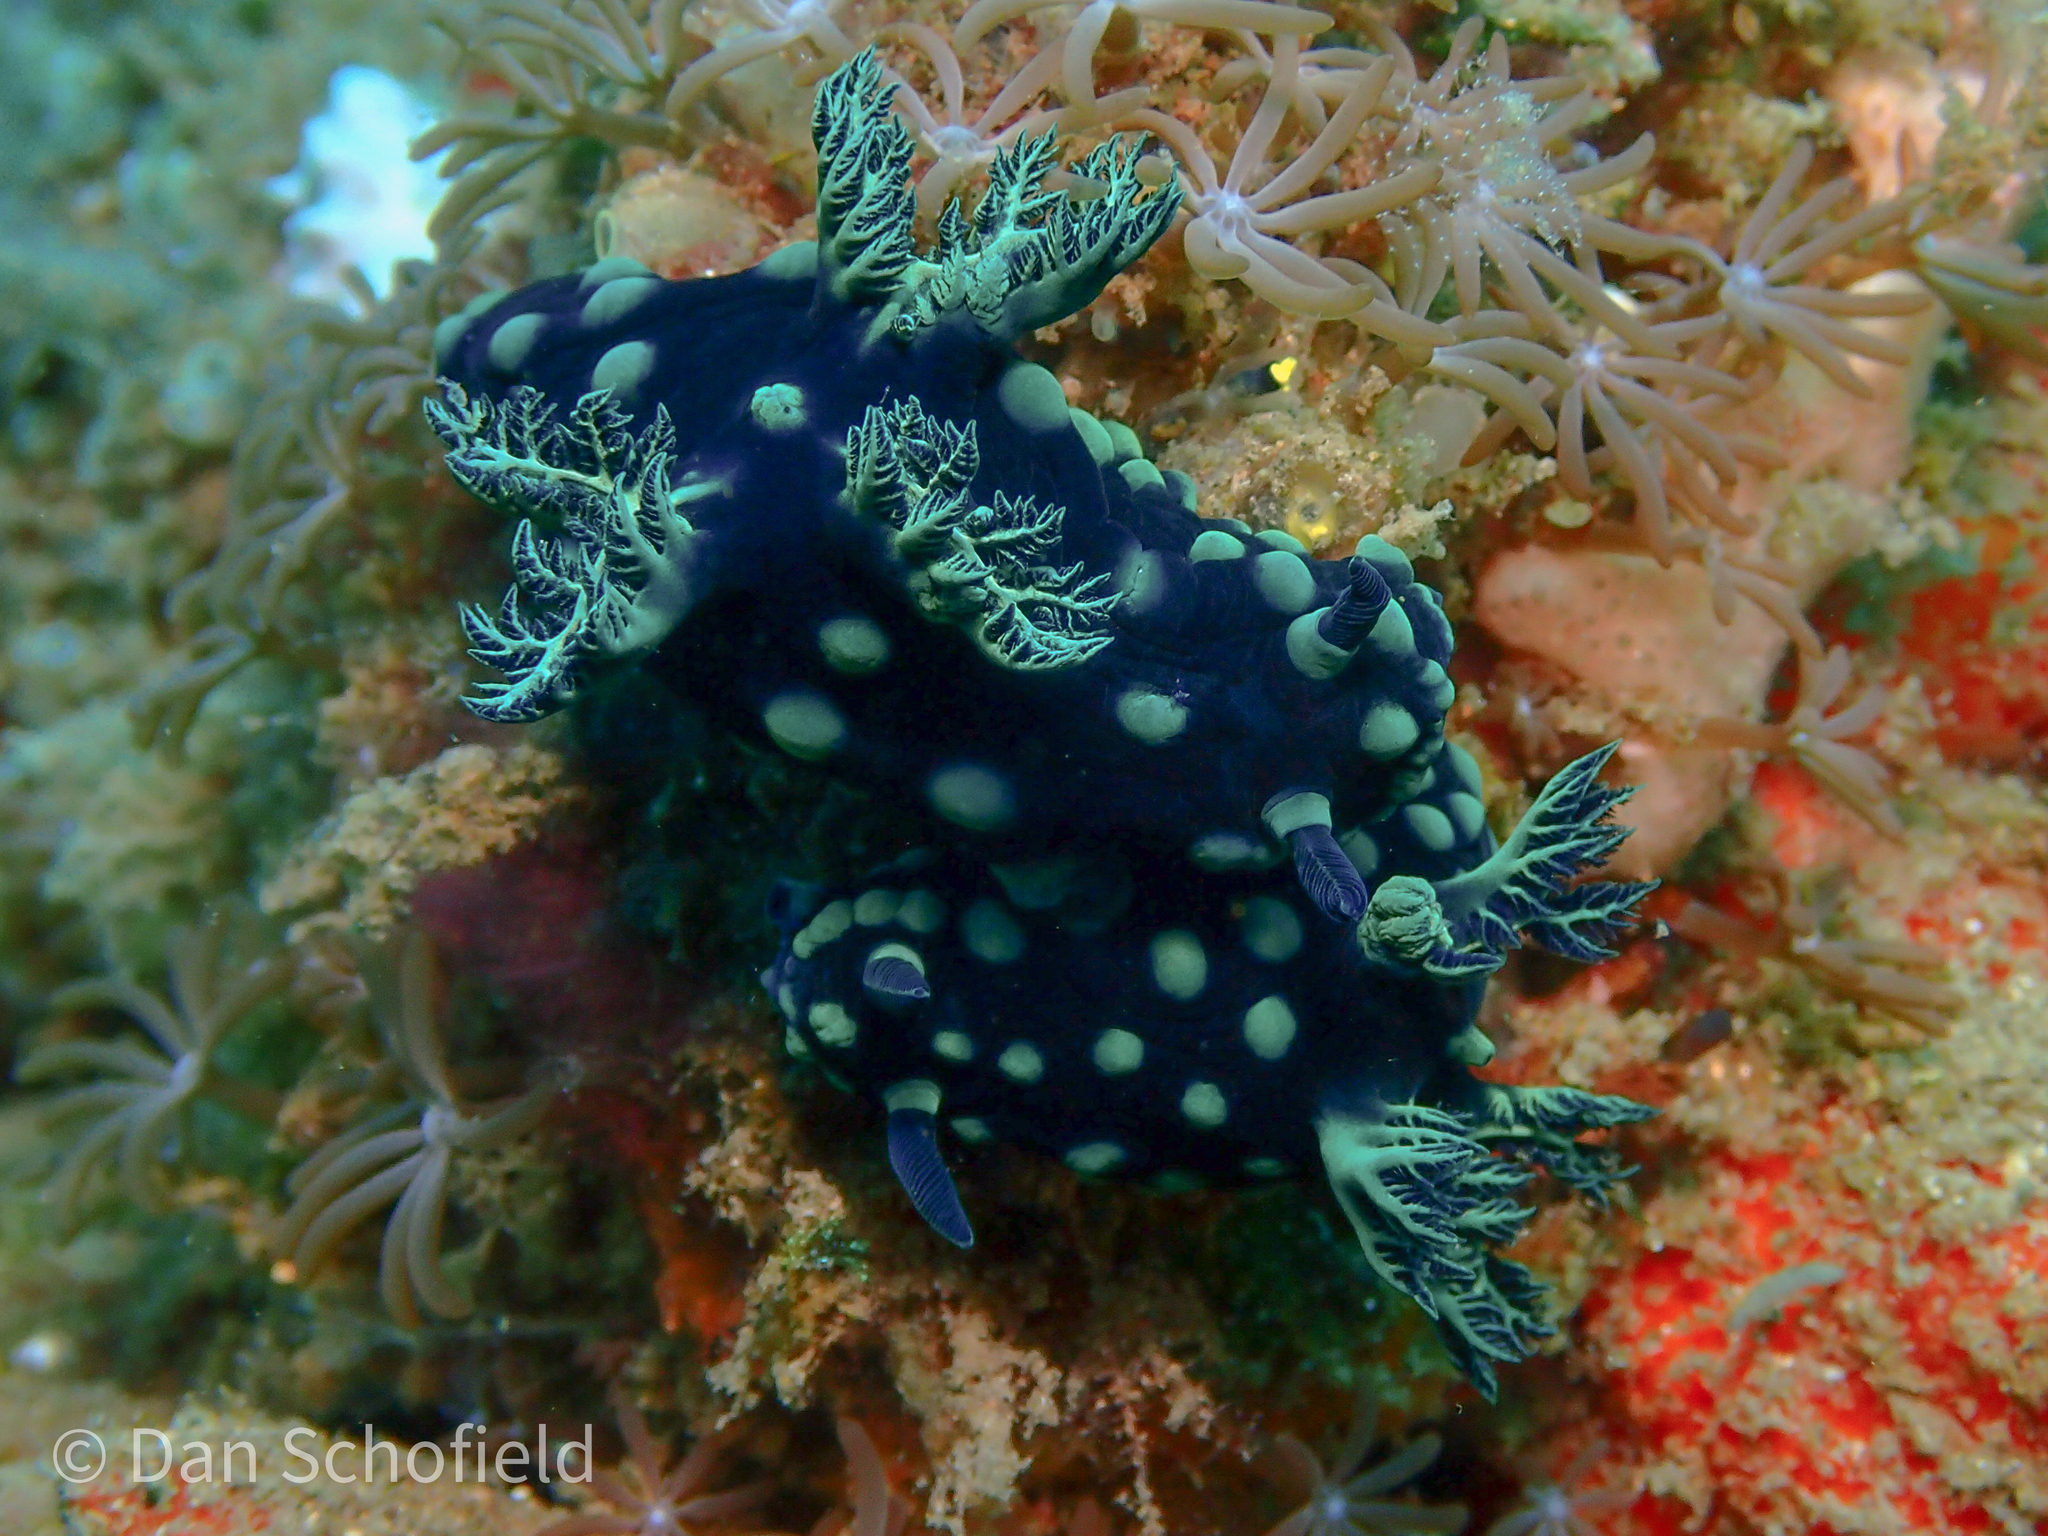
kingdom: Animalia
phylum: Mollusca
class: Gastropoda
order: Nudibranchia
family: Polyceridae
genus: Nembrotha
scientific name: Nembrotha cristata
